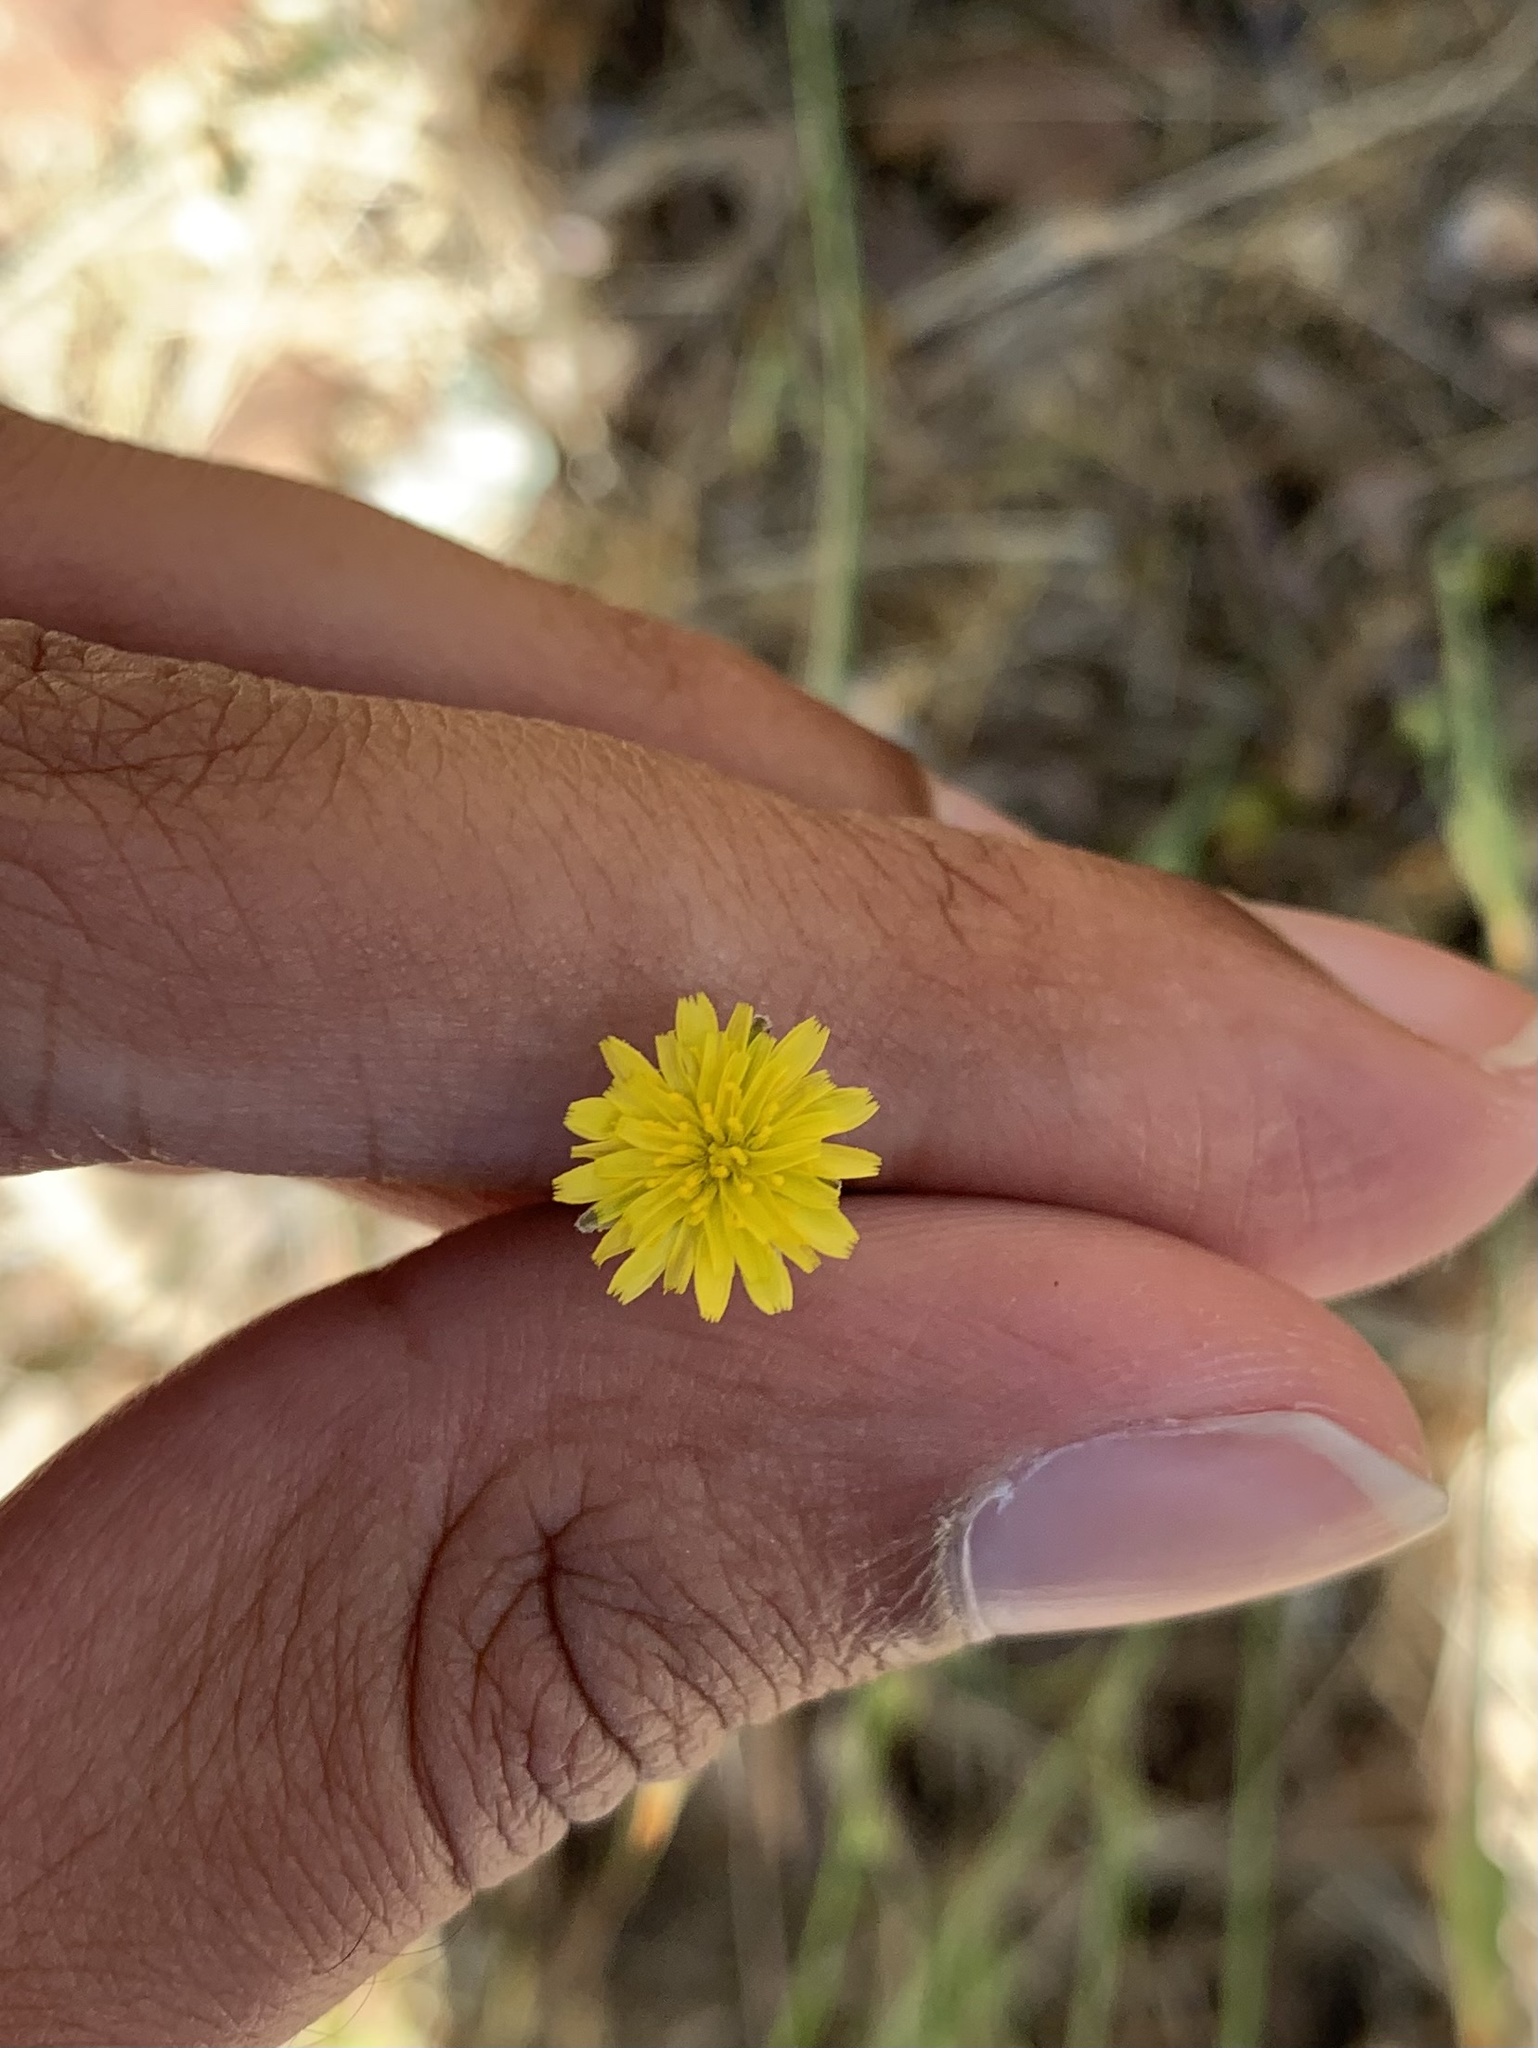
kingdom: Plantae
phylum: Tracheophyta
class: Magnoliopsida
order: Asterales
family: Asteraceae
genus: Hypochaeris
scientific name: Hypochaeris glabra
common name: Smooth catsear
